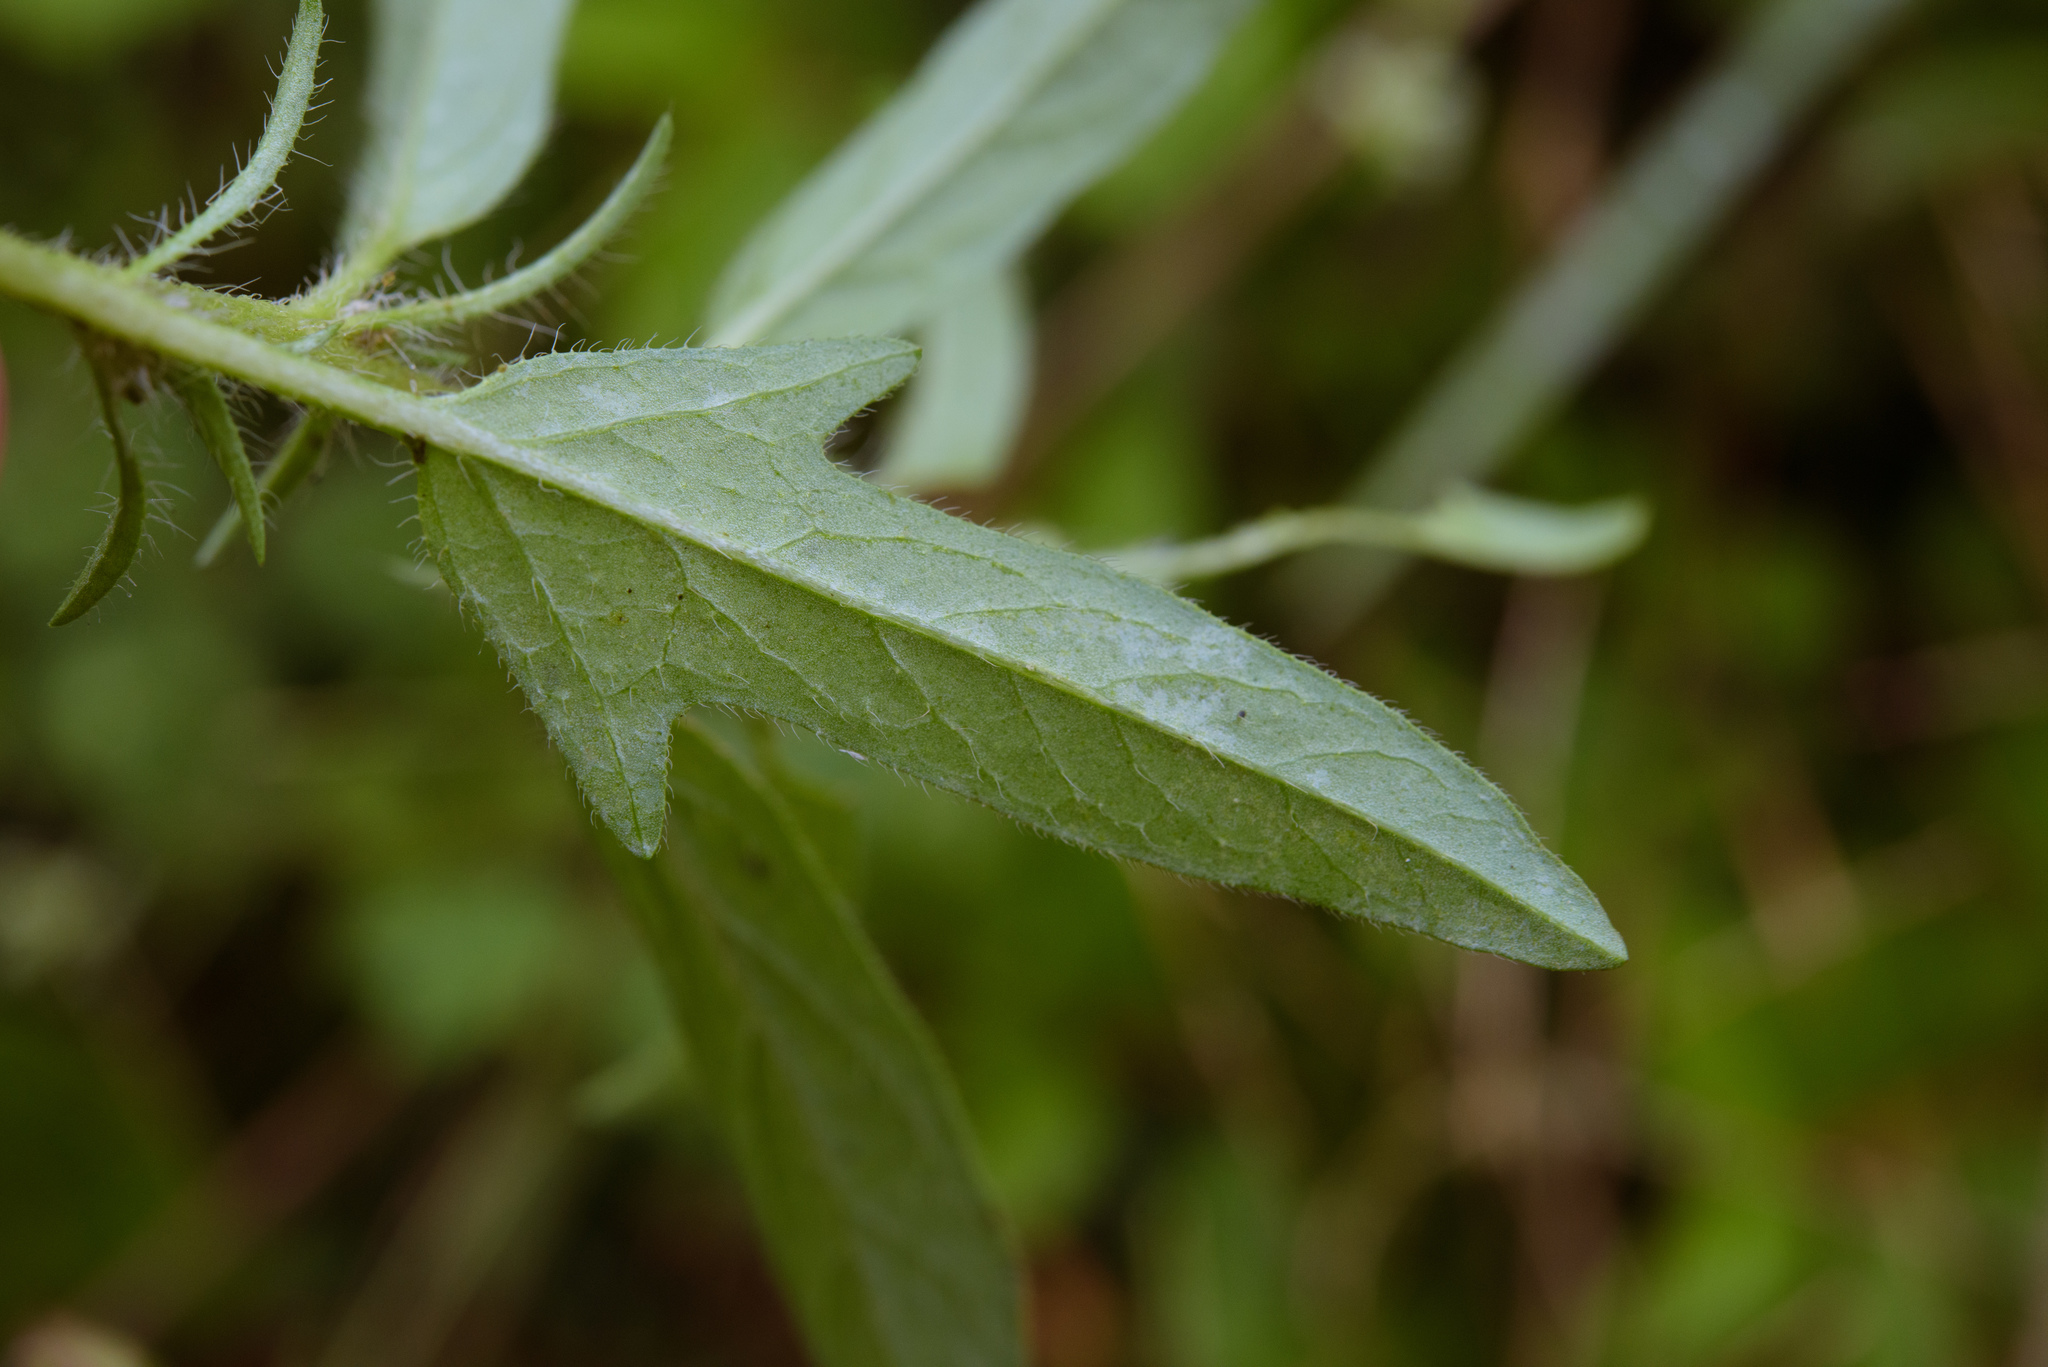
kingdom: Plantae
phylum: Tracheophyta
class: Magnoliopsida
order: Solanales
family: Convolvulaceae
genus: Ipomoea
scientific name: Ipomoea polymorpha
